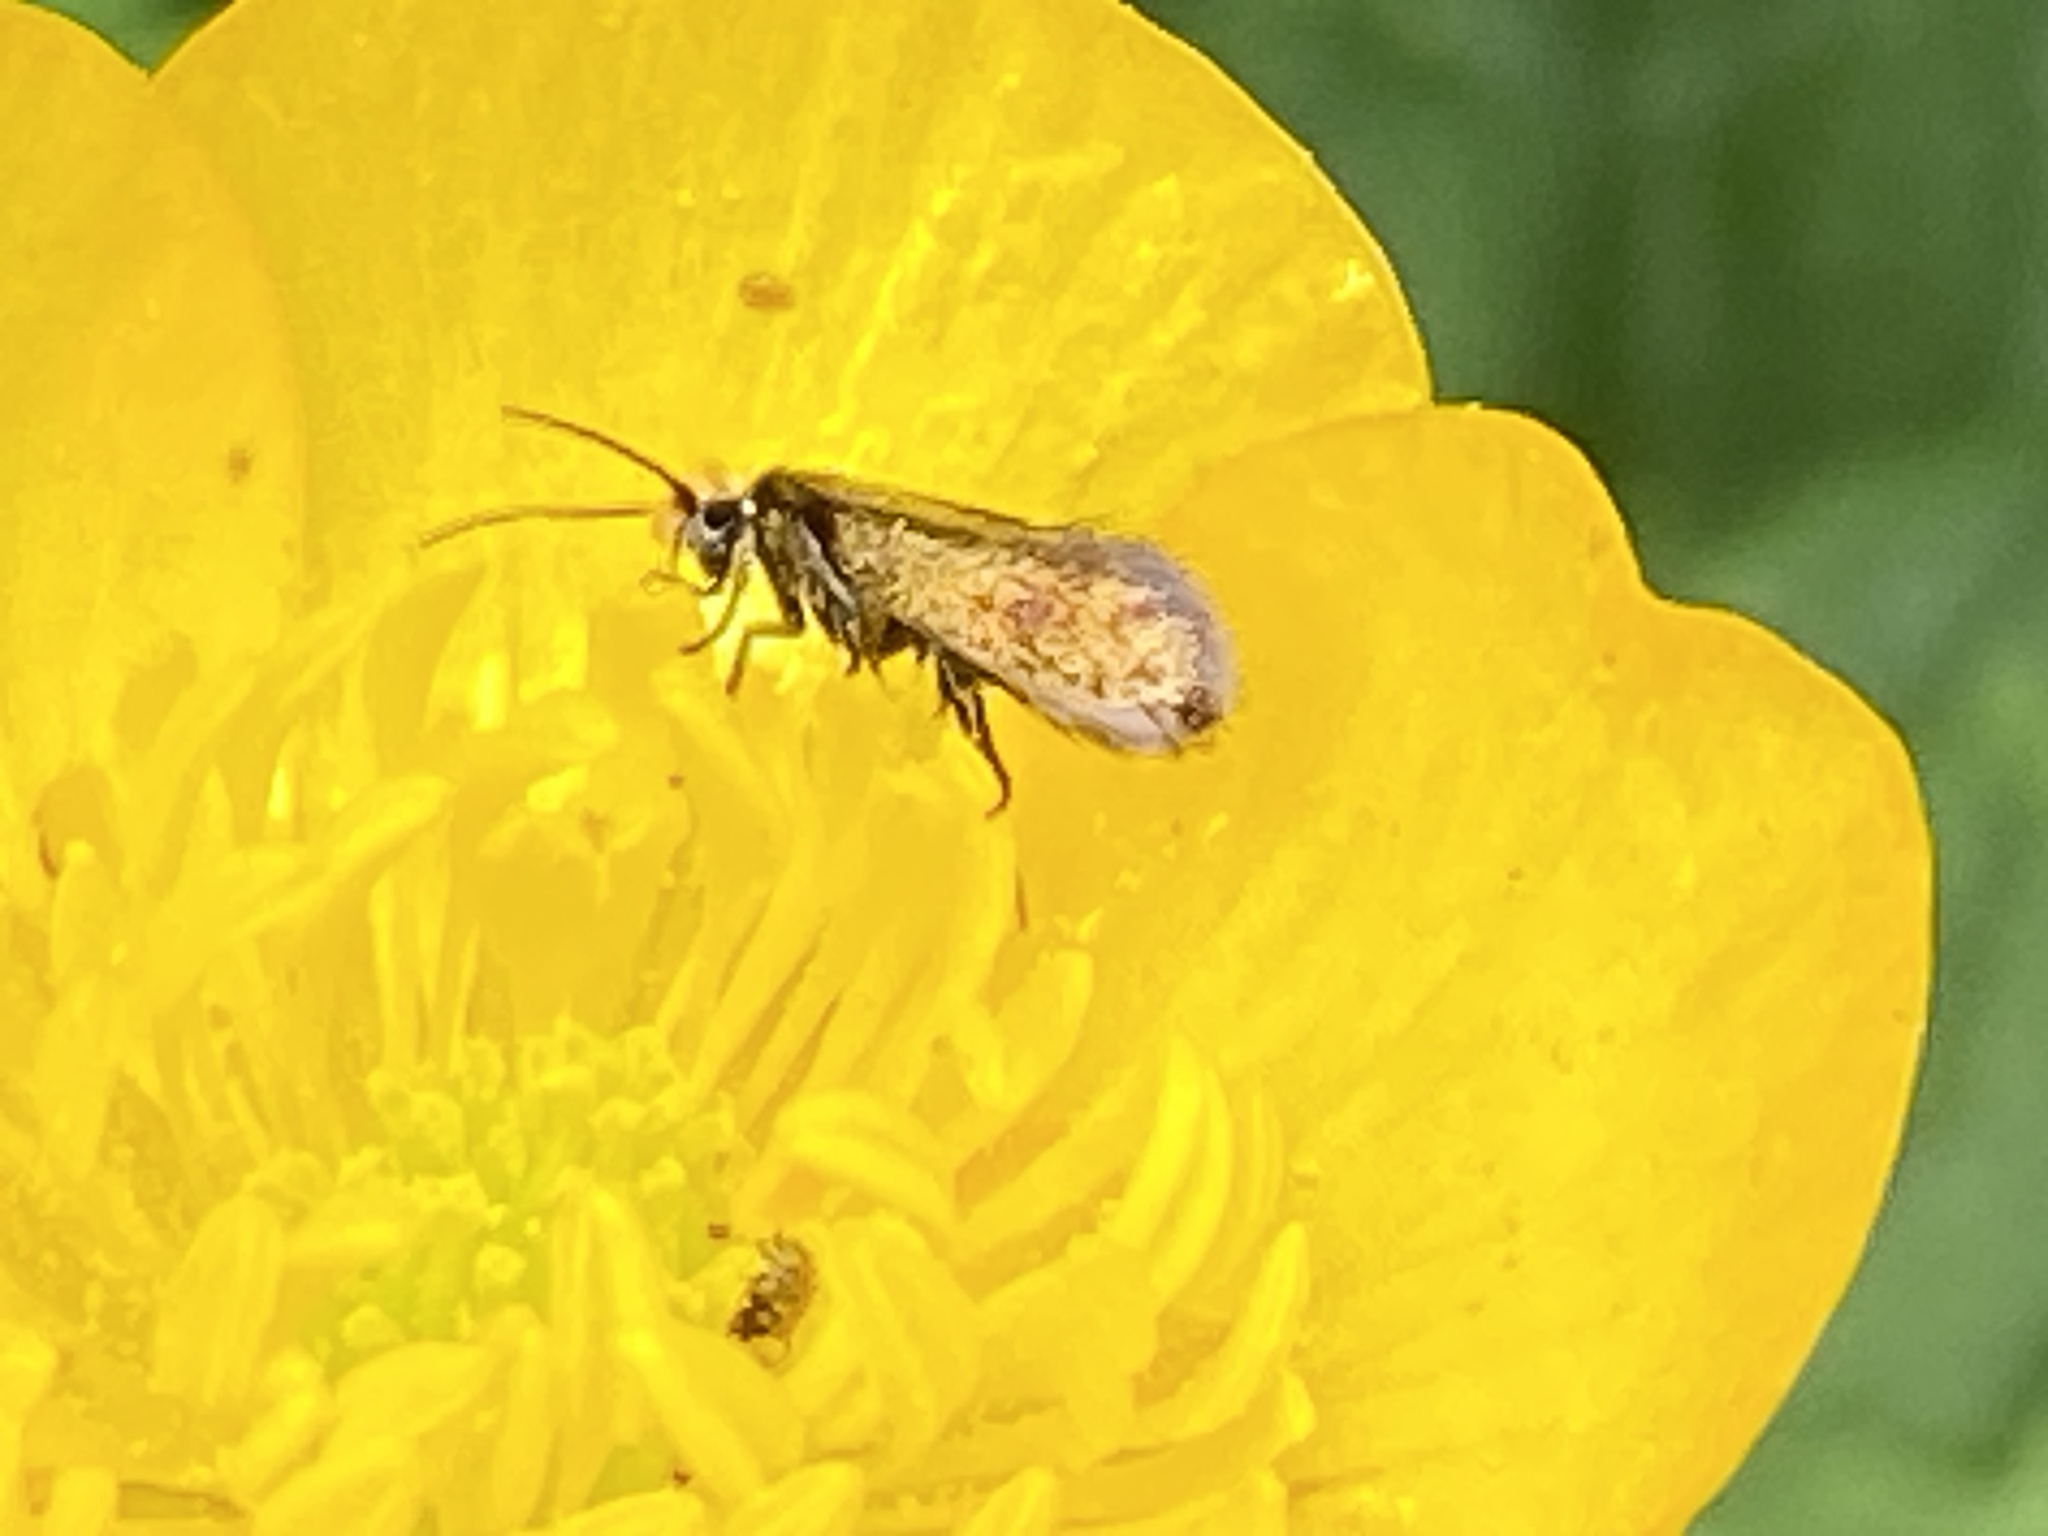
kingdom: Animalia
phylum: Arthropoda
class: Insecta
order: Lepidoptera
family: Micropterigidae
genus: Micropterix
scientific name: Micropterix calthella
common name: Plain gold
